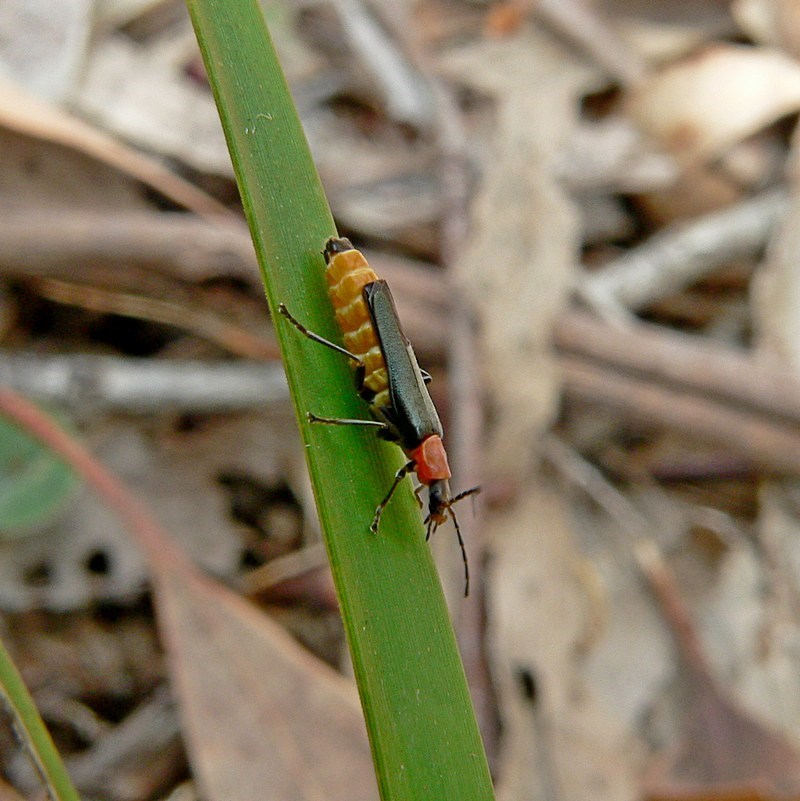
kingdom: Animalia
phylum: Arthropoda
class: Insecta
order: Coleoptera
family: Cantharidae
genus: Chauliognathus
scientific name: Chauliognathus
